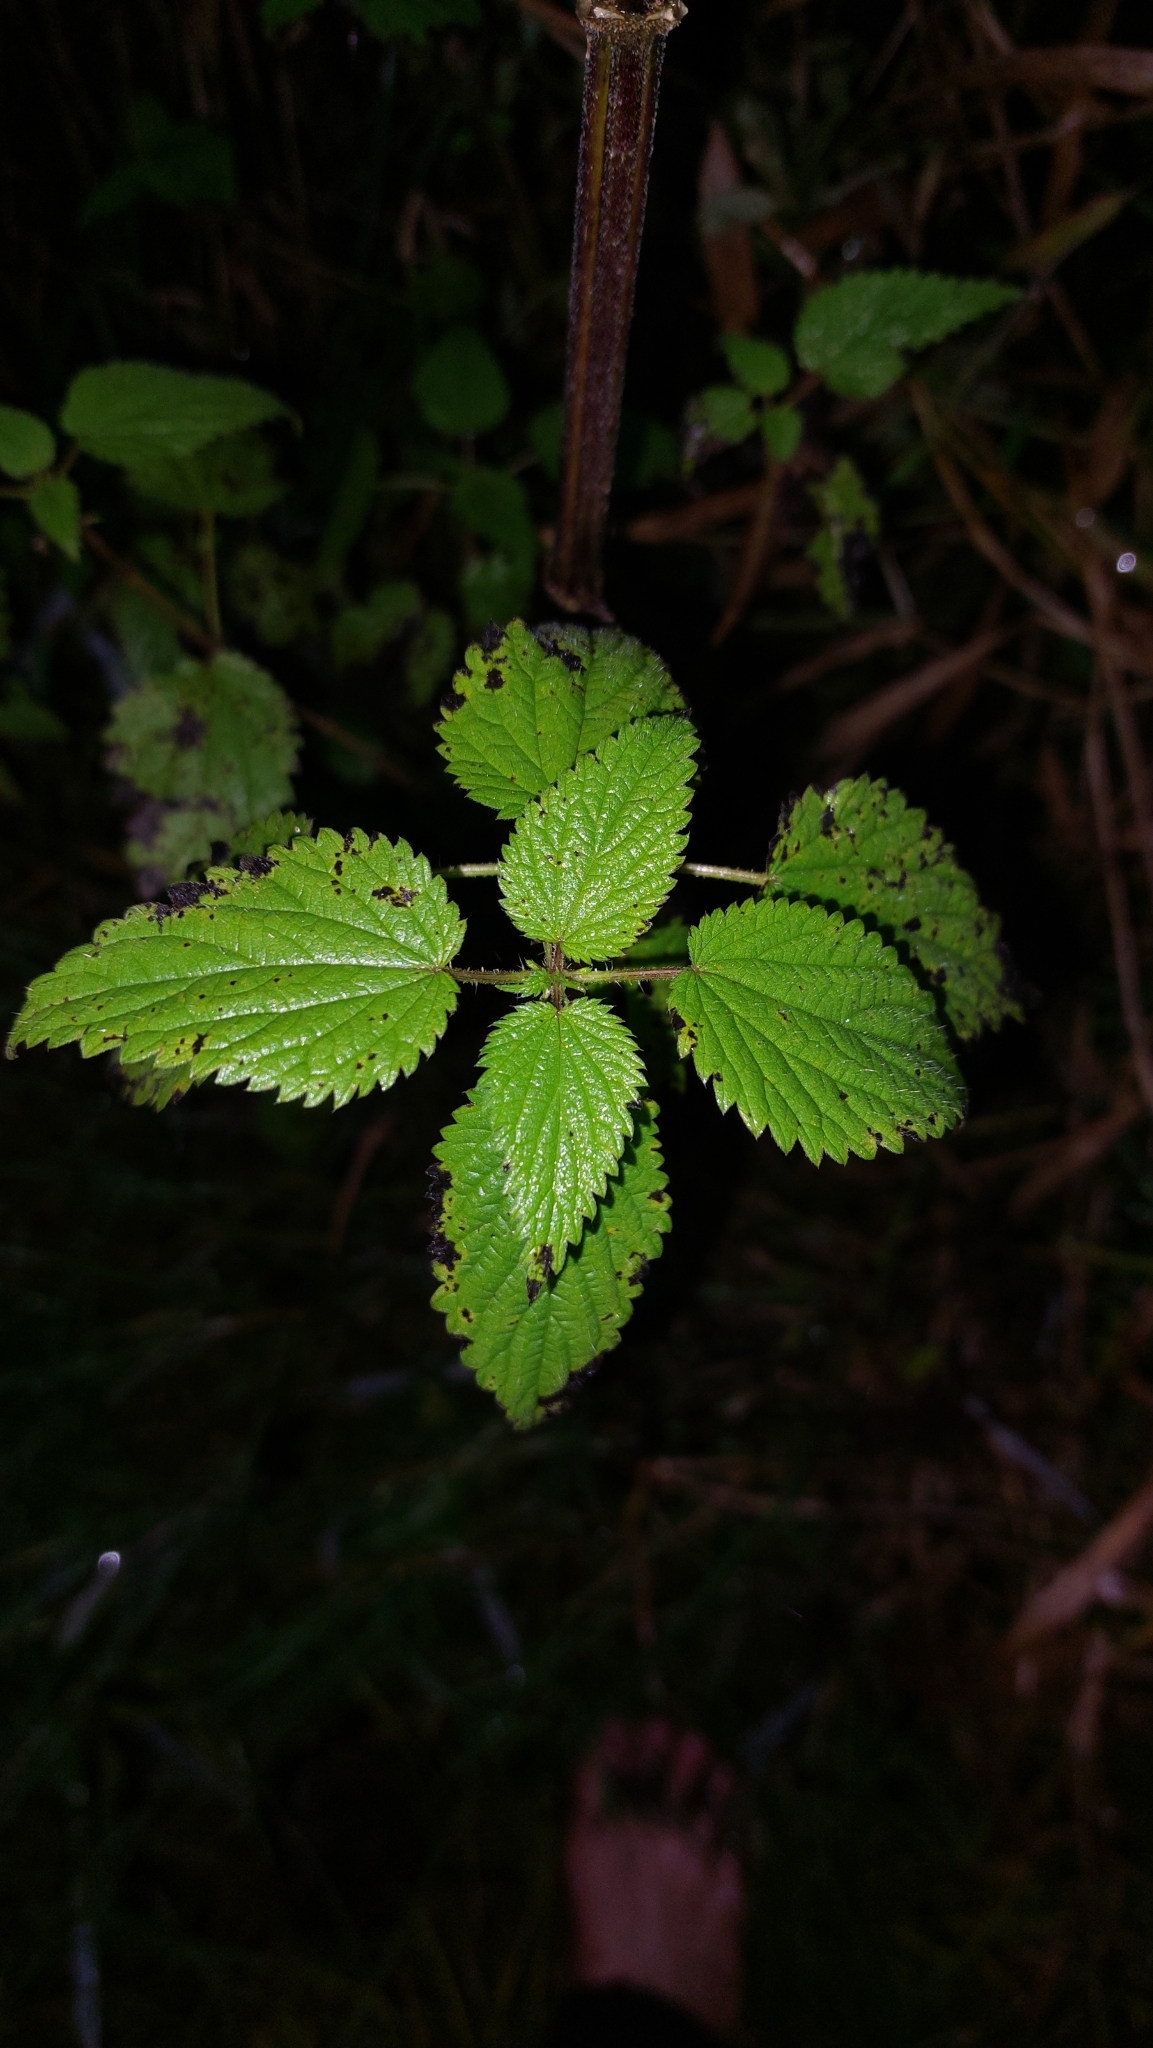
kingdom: Plantae
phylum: Tracheophyta
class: Magnoliopsida
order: Rosales
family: Urticaceae
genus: Urtica
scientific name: Urtica dioica
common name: Common nettle
